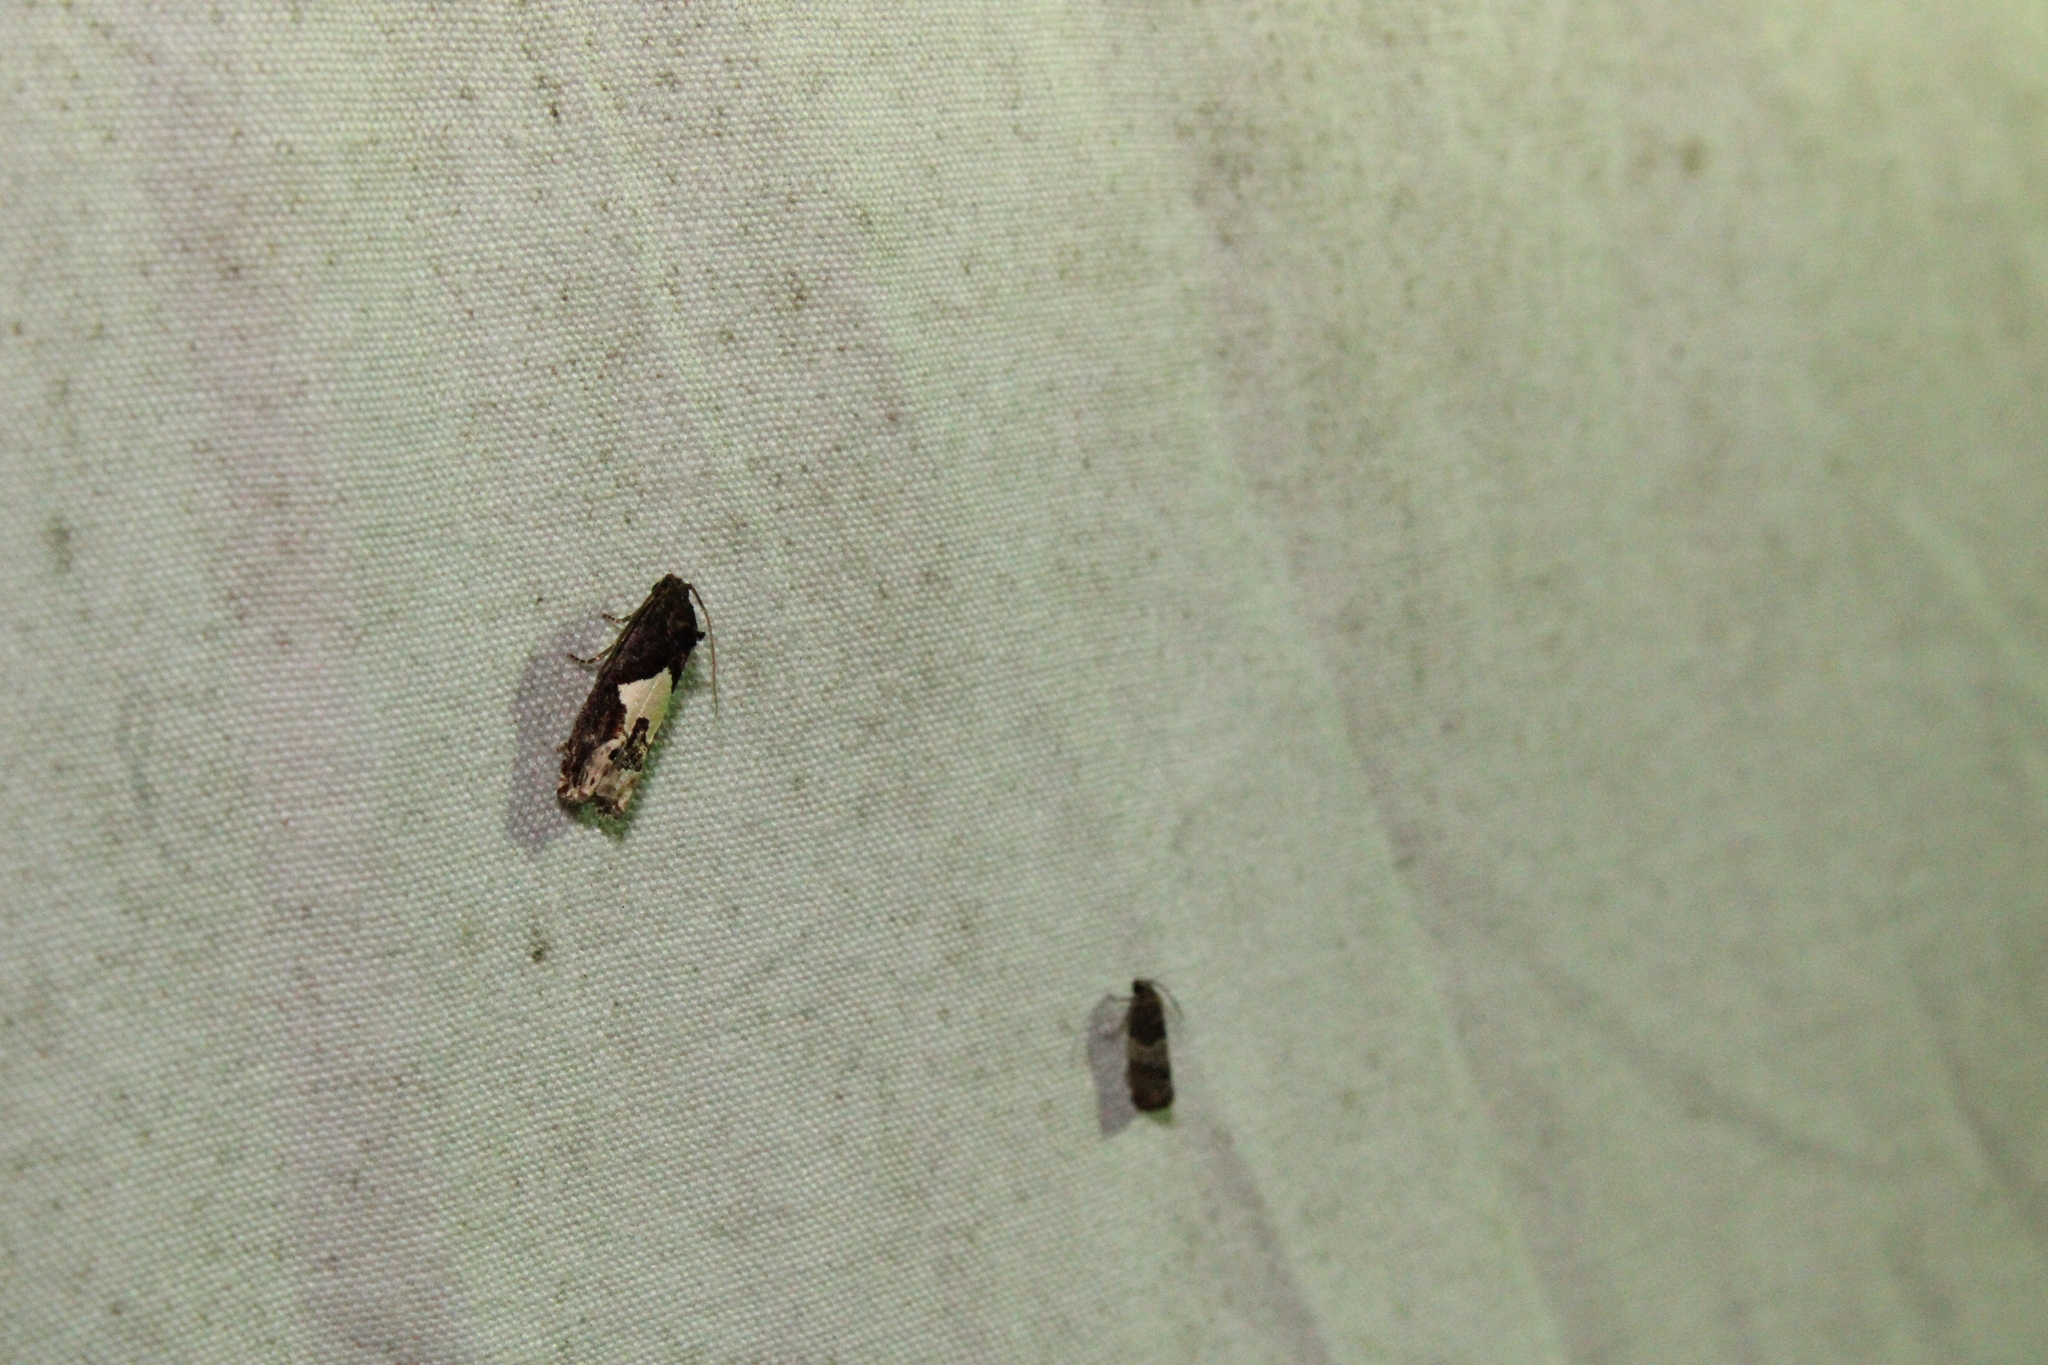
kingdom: Animalia
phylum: Arthropoda
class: Insecta
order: Lepidoptera
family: Tortricidae
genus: Epiblema
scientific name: Epiblema otiosana
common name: Bidens borer moth
